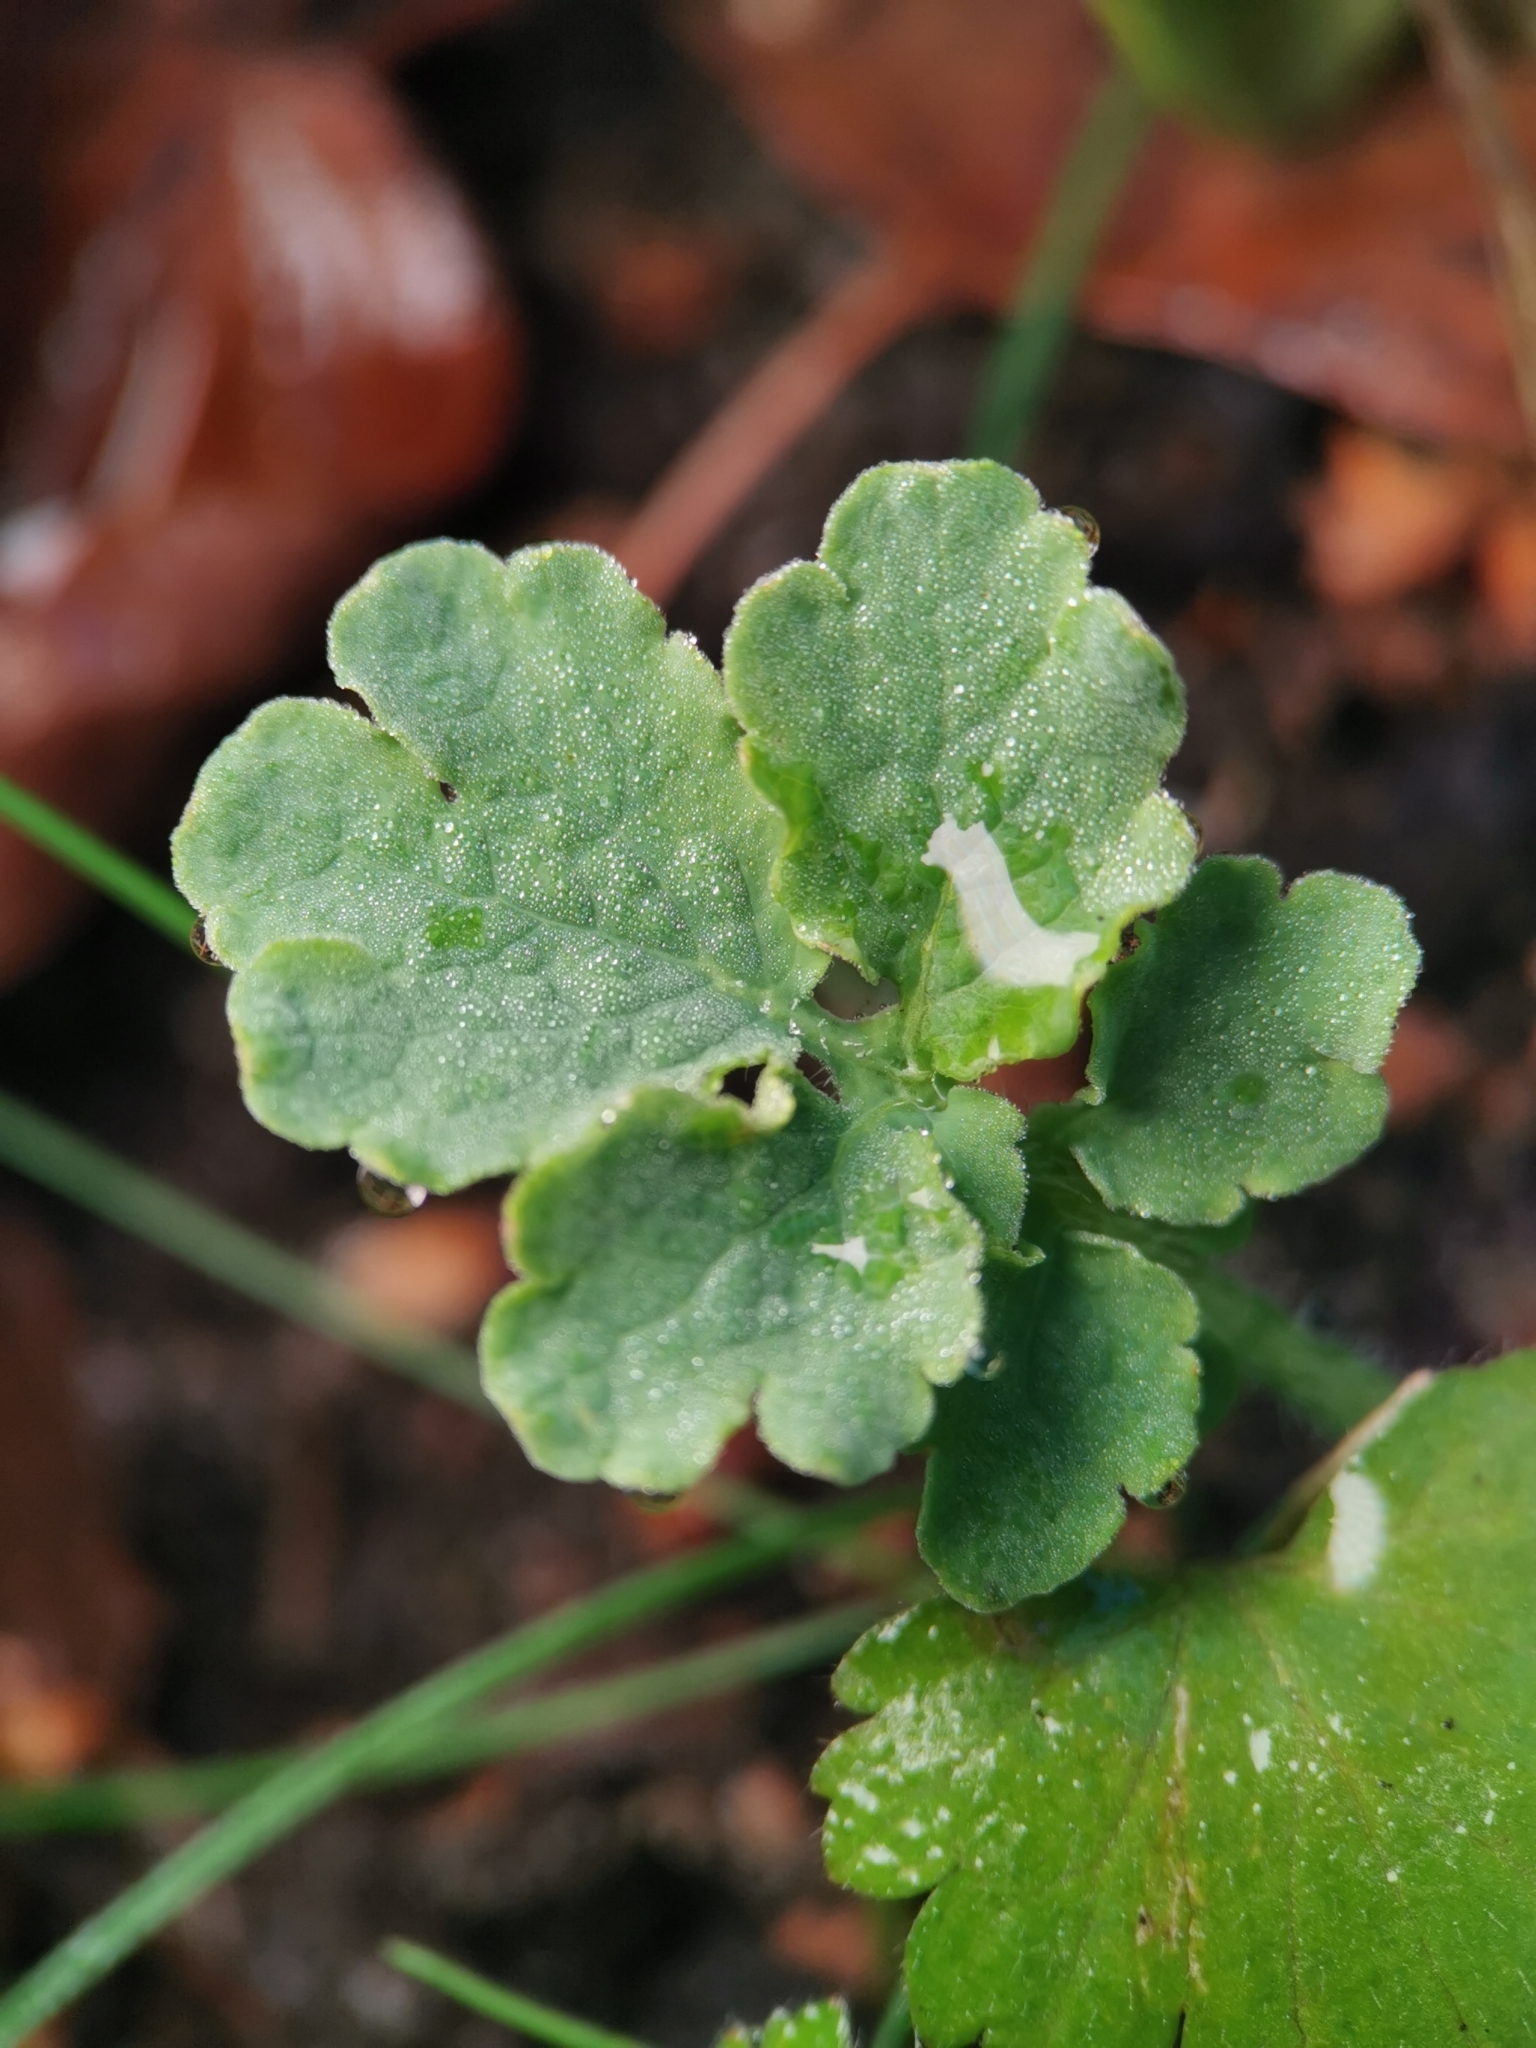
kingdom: Plantae
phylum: Tracheophyta
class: Magnoliopsida
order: Ranunculales
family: Papaveraceae
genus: Chelidonium
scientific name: Chelidonium majus
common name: Greater celandine
